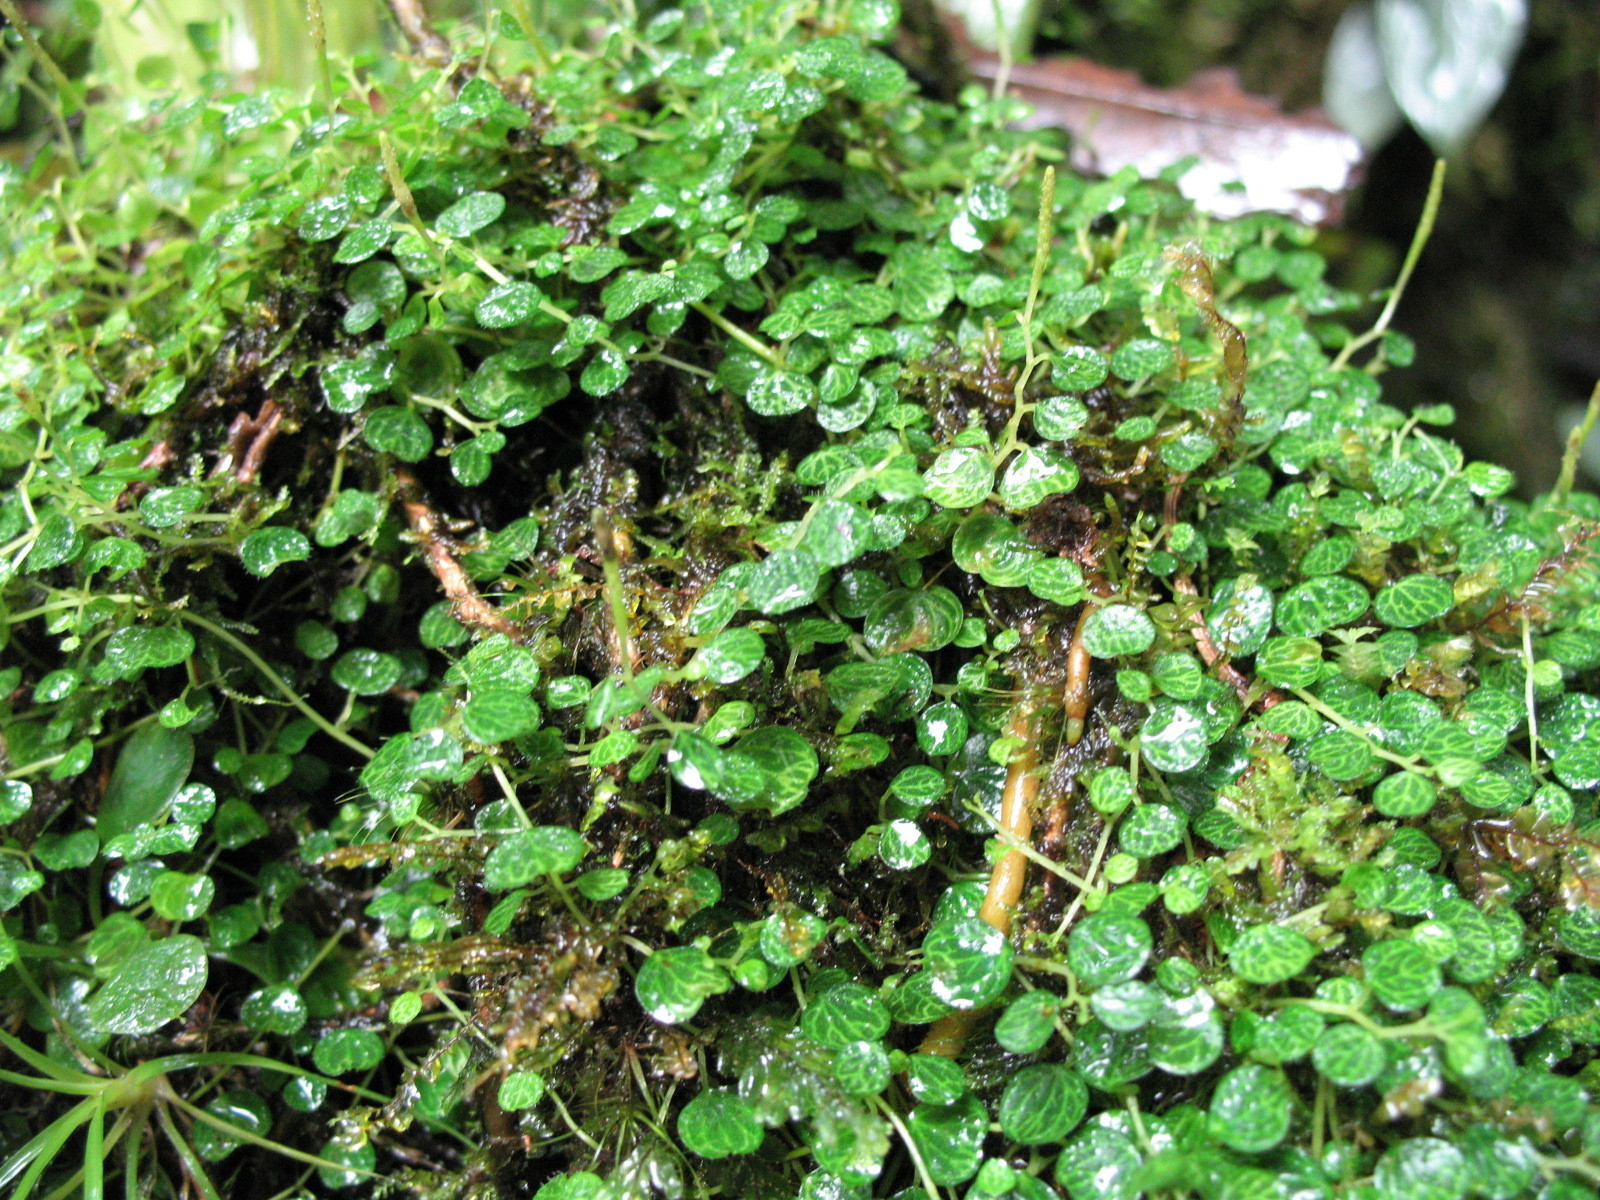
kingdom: Plantae
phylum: Tracheophyta
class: Magnoliopsida
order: Piperales
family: Piperaceae
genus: Peperomia
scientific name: Peperomia emarginella
